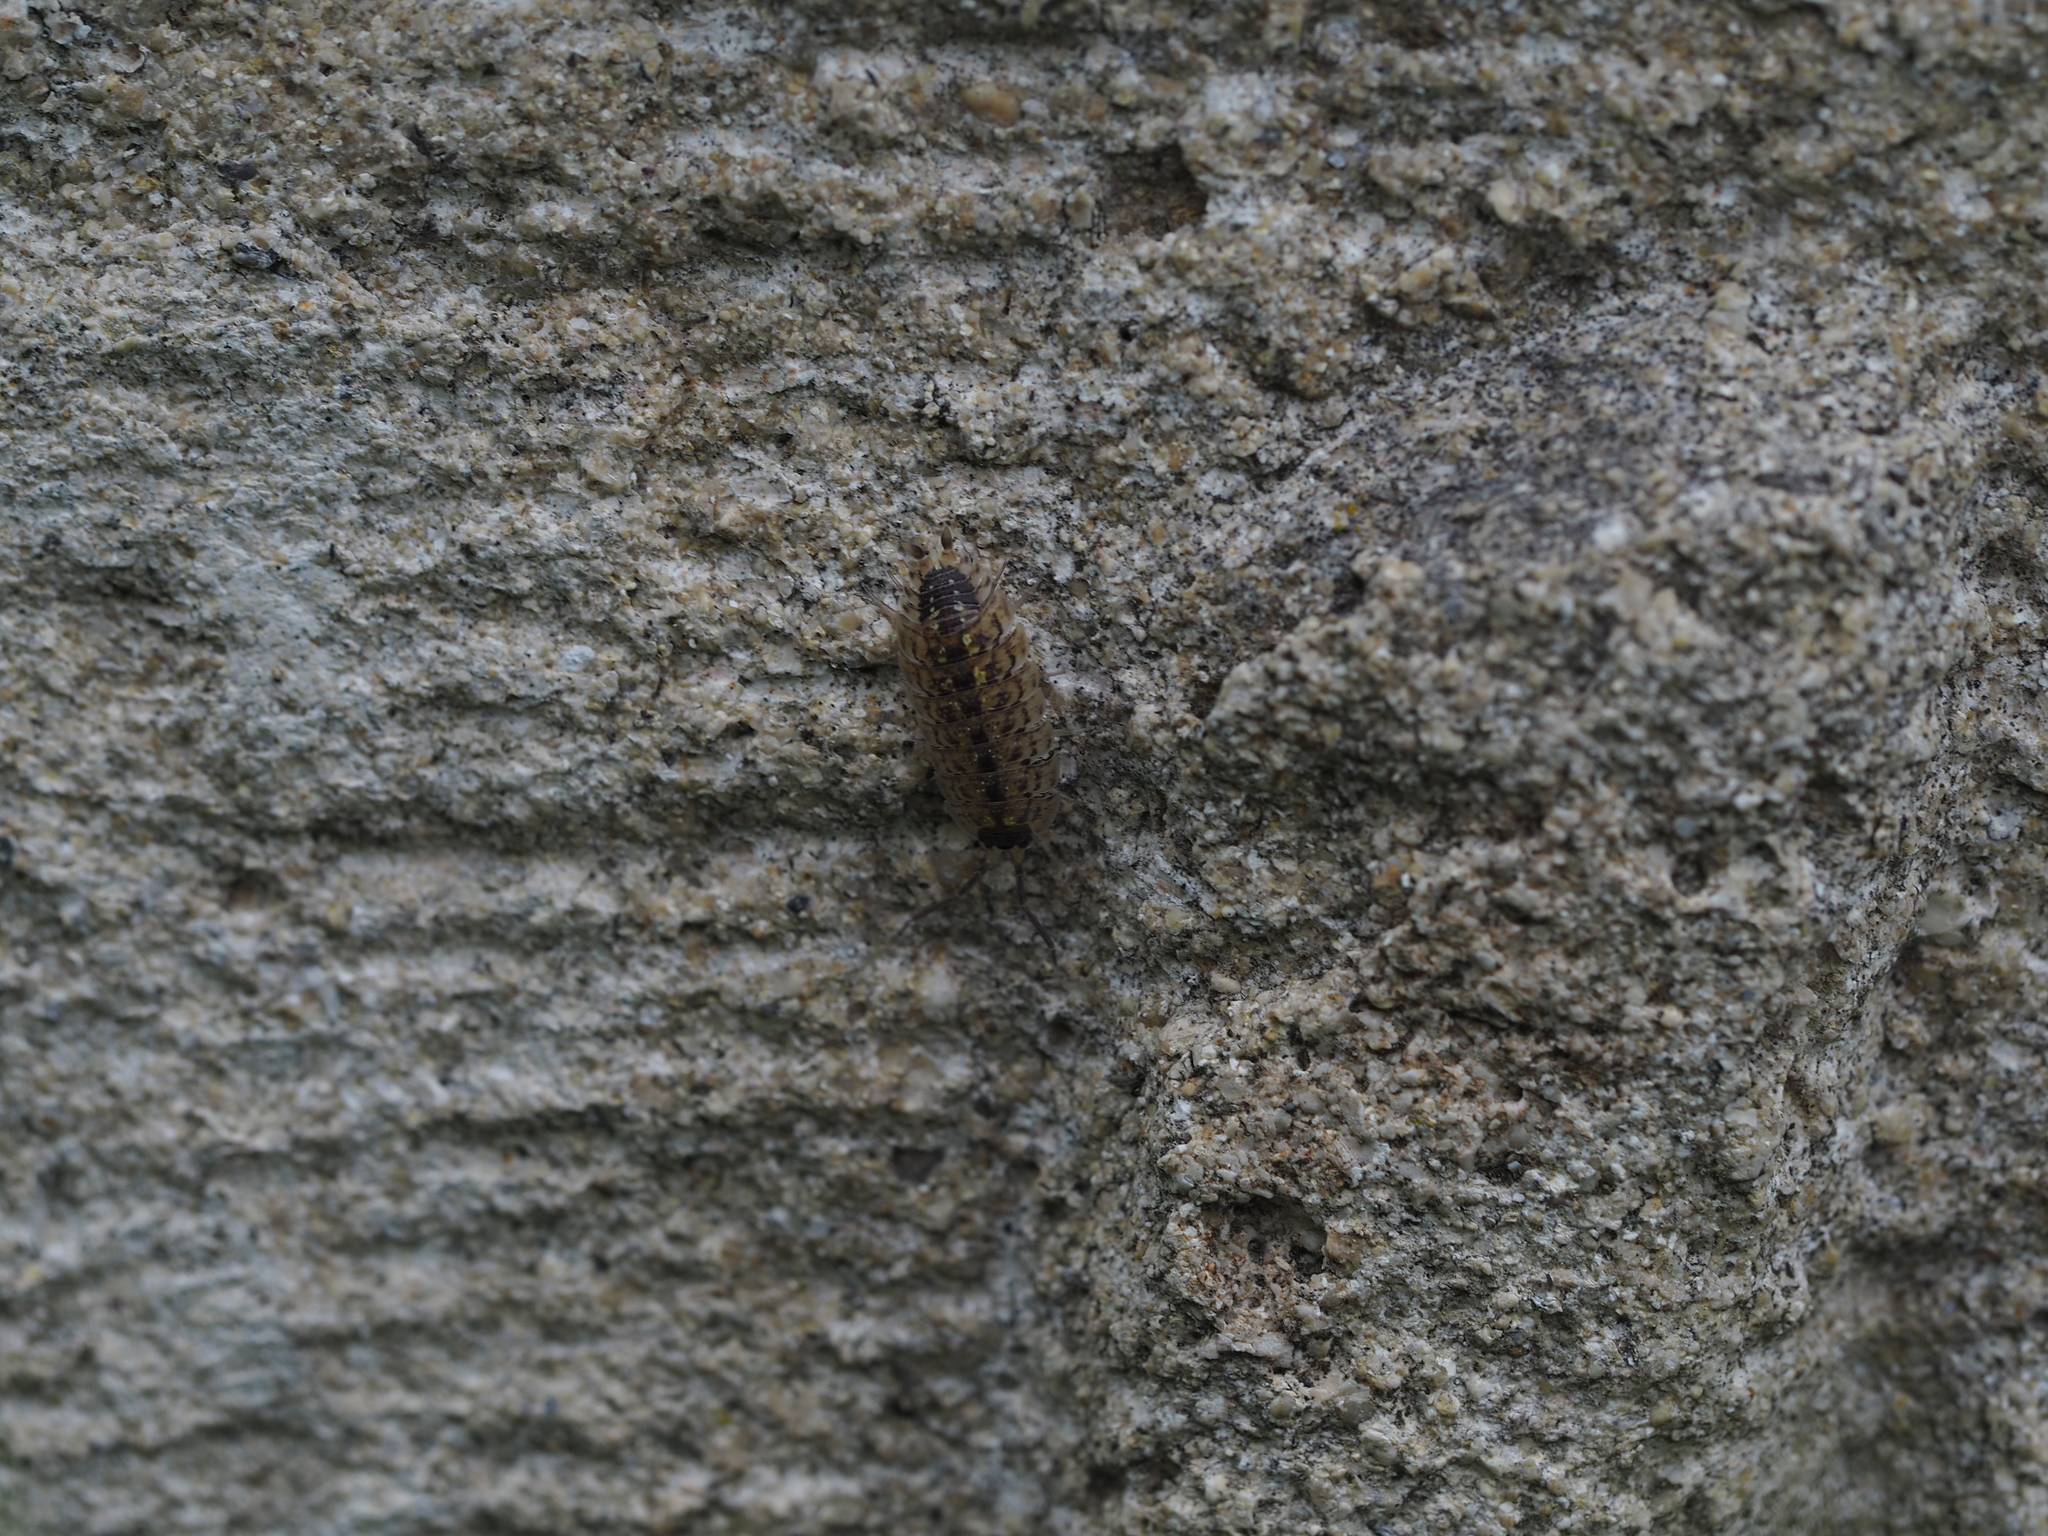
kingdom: Animalia
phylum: Arthropoda
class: Malacostraca
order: Isopoda
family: Porcellionidae
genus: Porcellio
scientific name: Porcellio spinicornis
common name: Painted woodlouse
